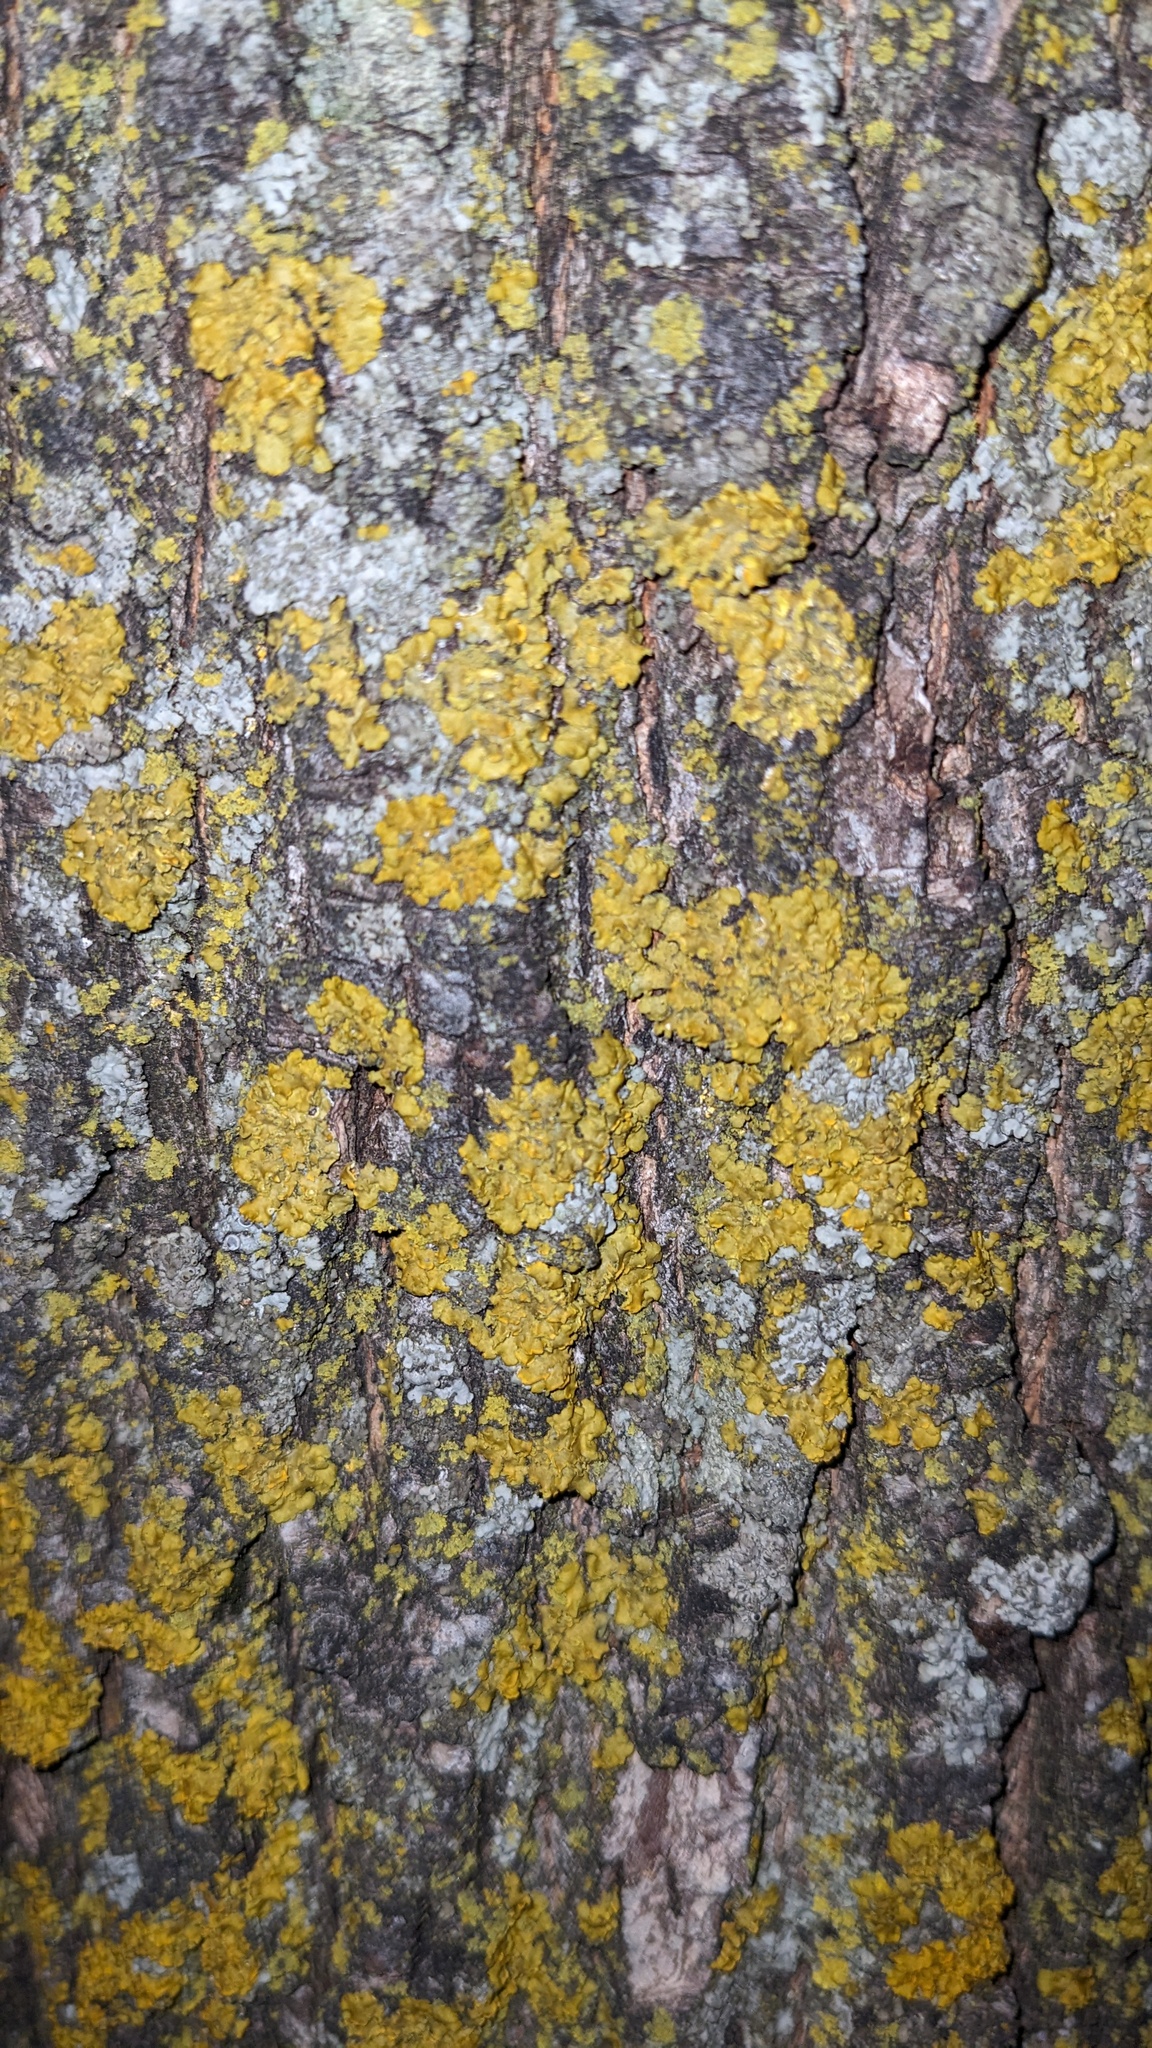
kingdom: Fungi
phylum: Ascomycota
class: Lecanoromycetes
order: Teloschistales
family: Teloschistaceae
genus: Oxneria
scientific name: Oxneria fallax
